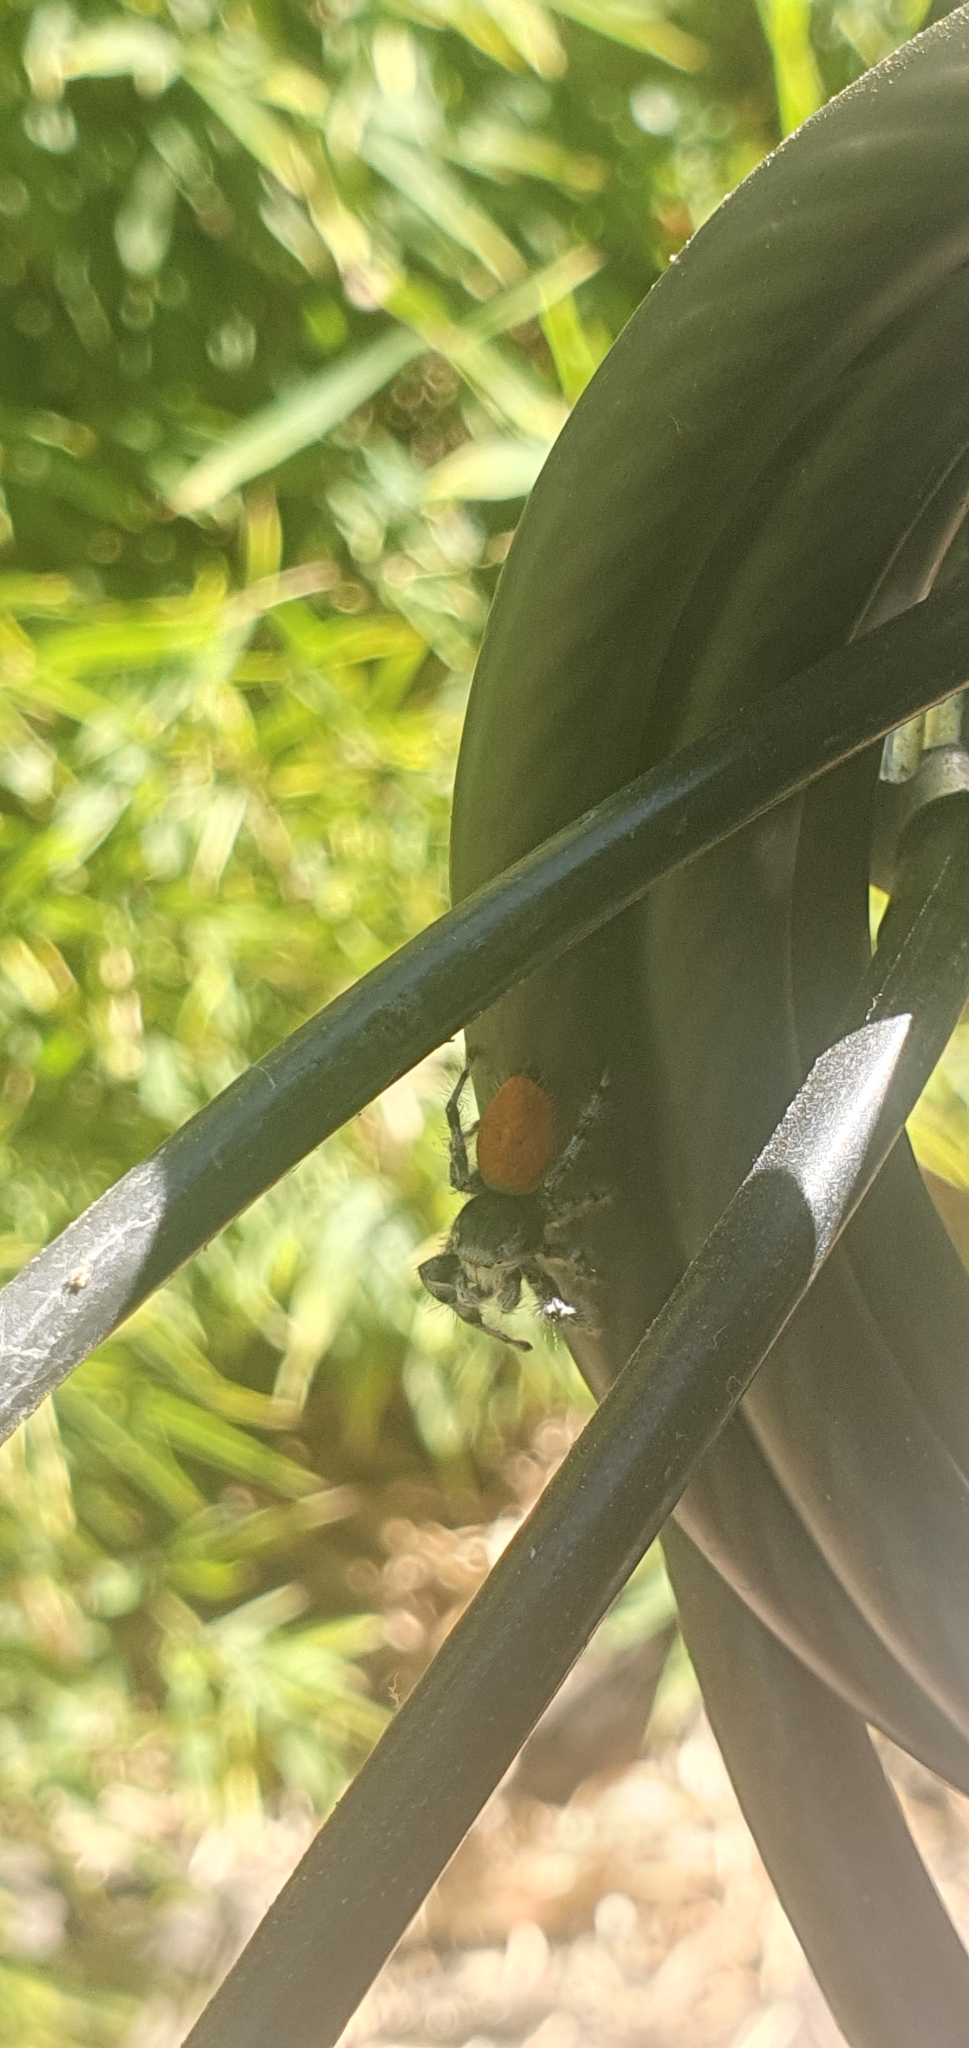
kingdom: Animalia
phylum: Arthropoda
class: Arachnida
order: Araneae
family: Salticidae
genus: Phidippus
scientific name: Phidippus adumbratus
